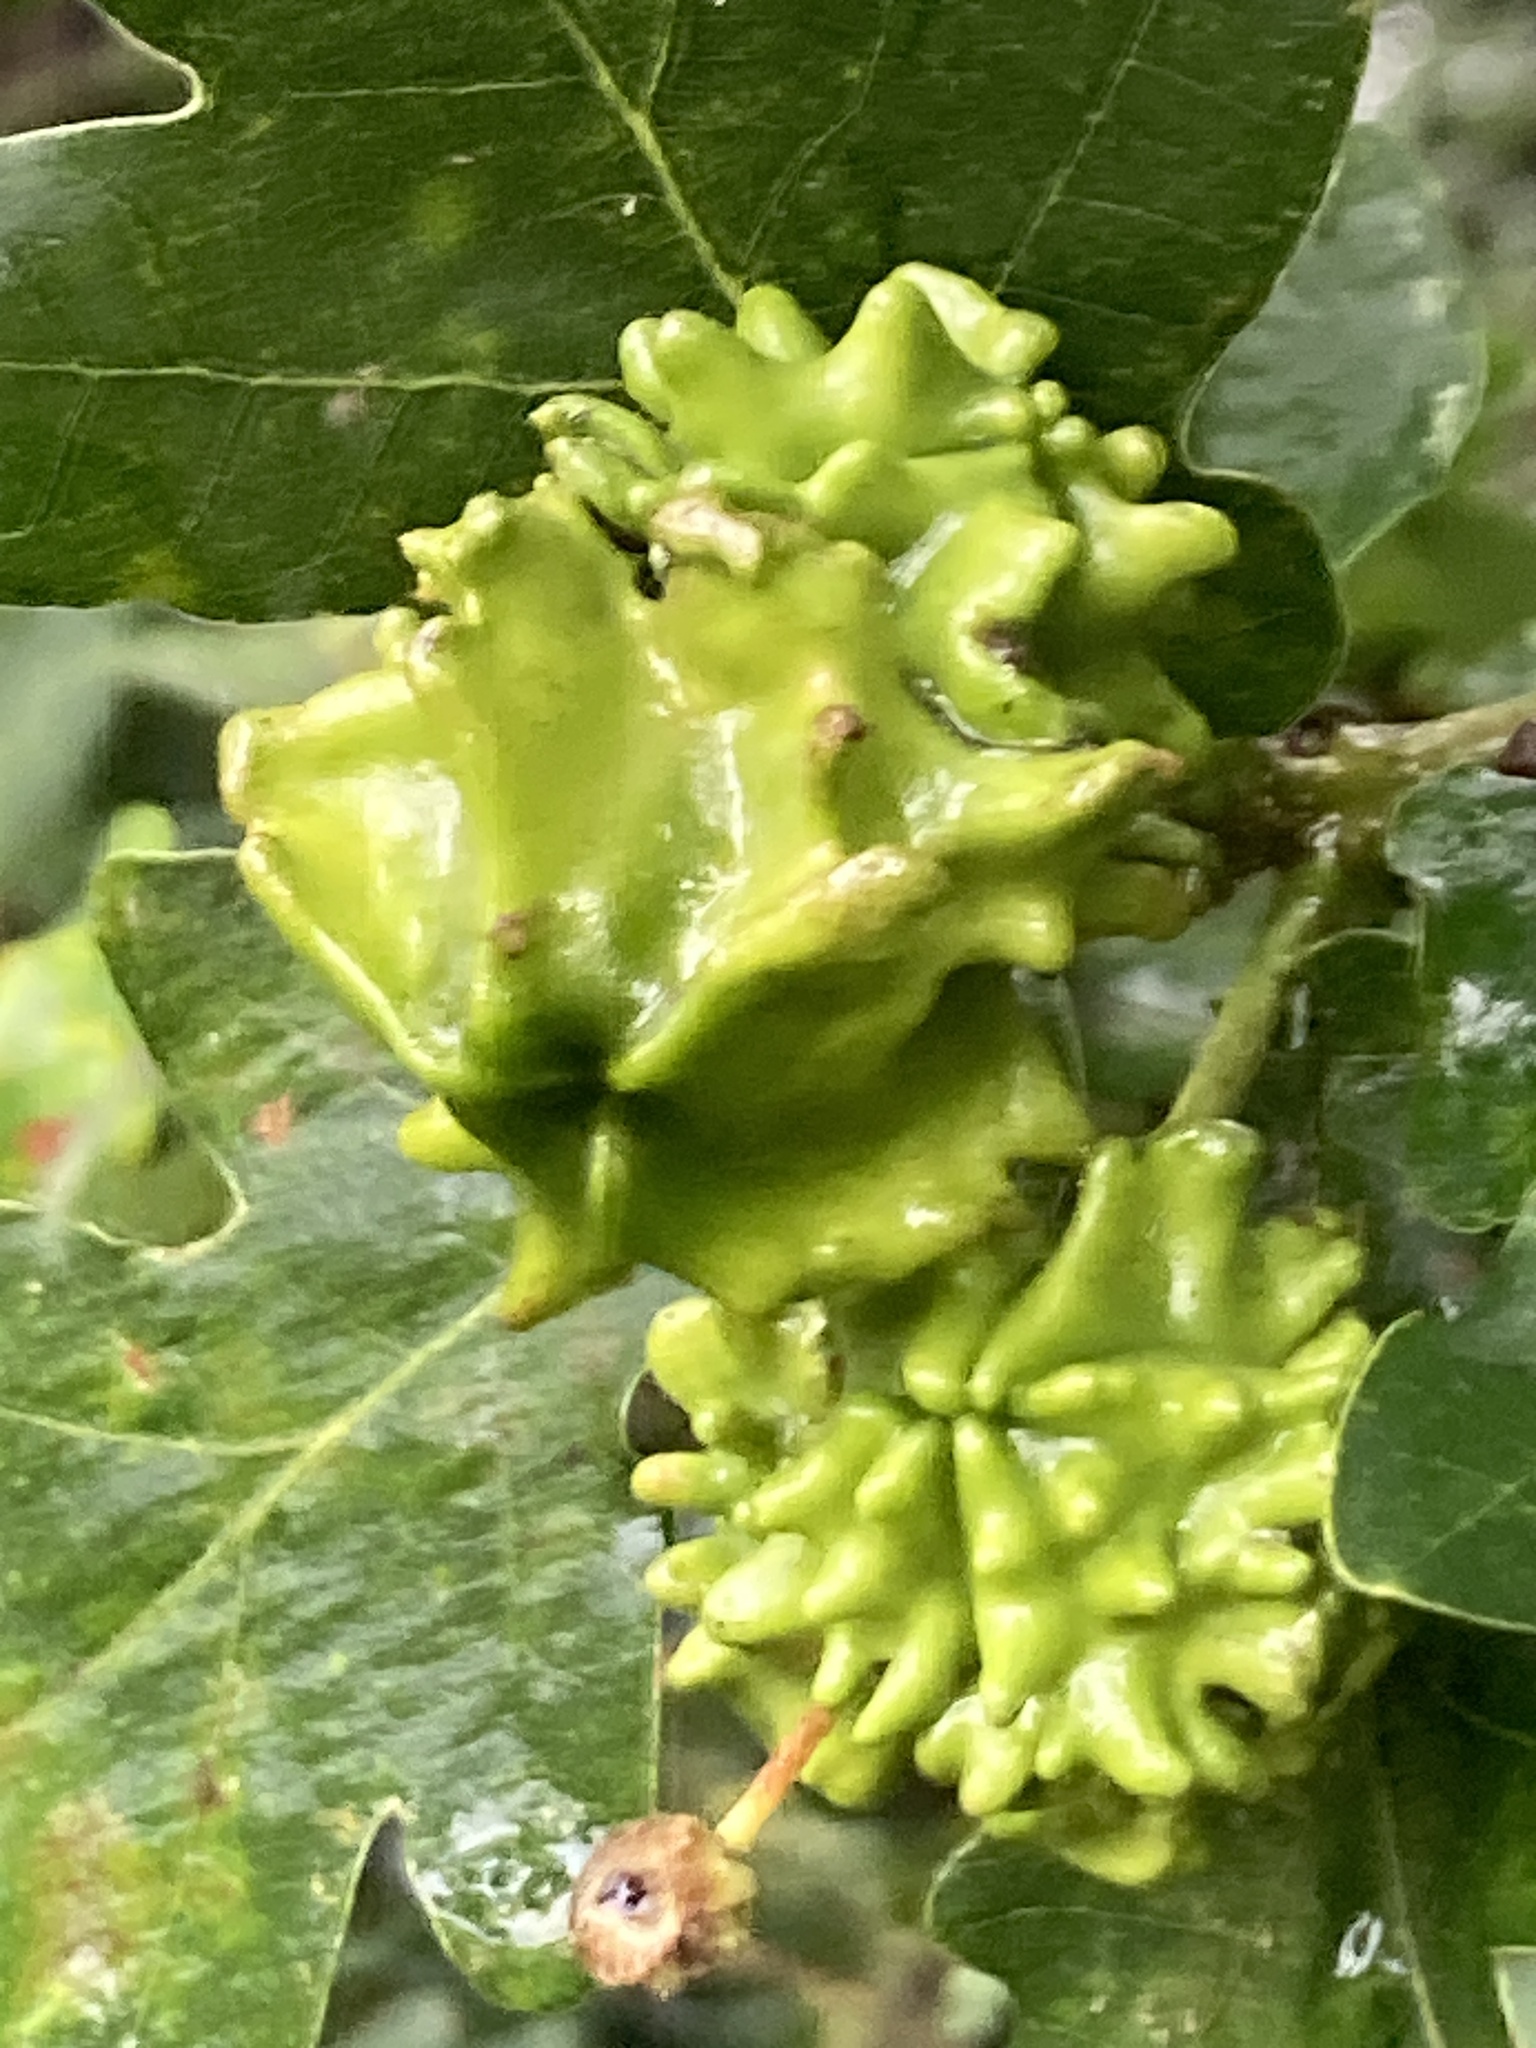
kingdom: Animalia
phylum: Arthropoda
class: Insecta
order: Hymenoptera
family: Cynipidae
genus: Andricus
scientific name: Andricus quercuscalicis
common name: Knopper gall
